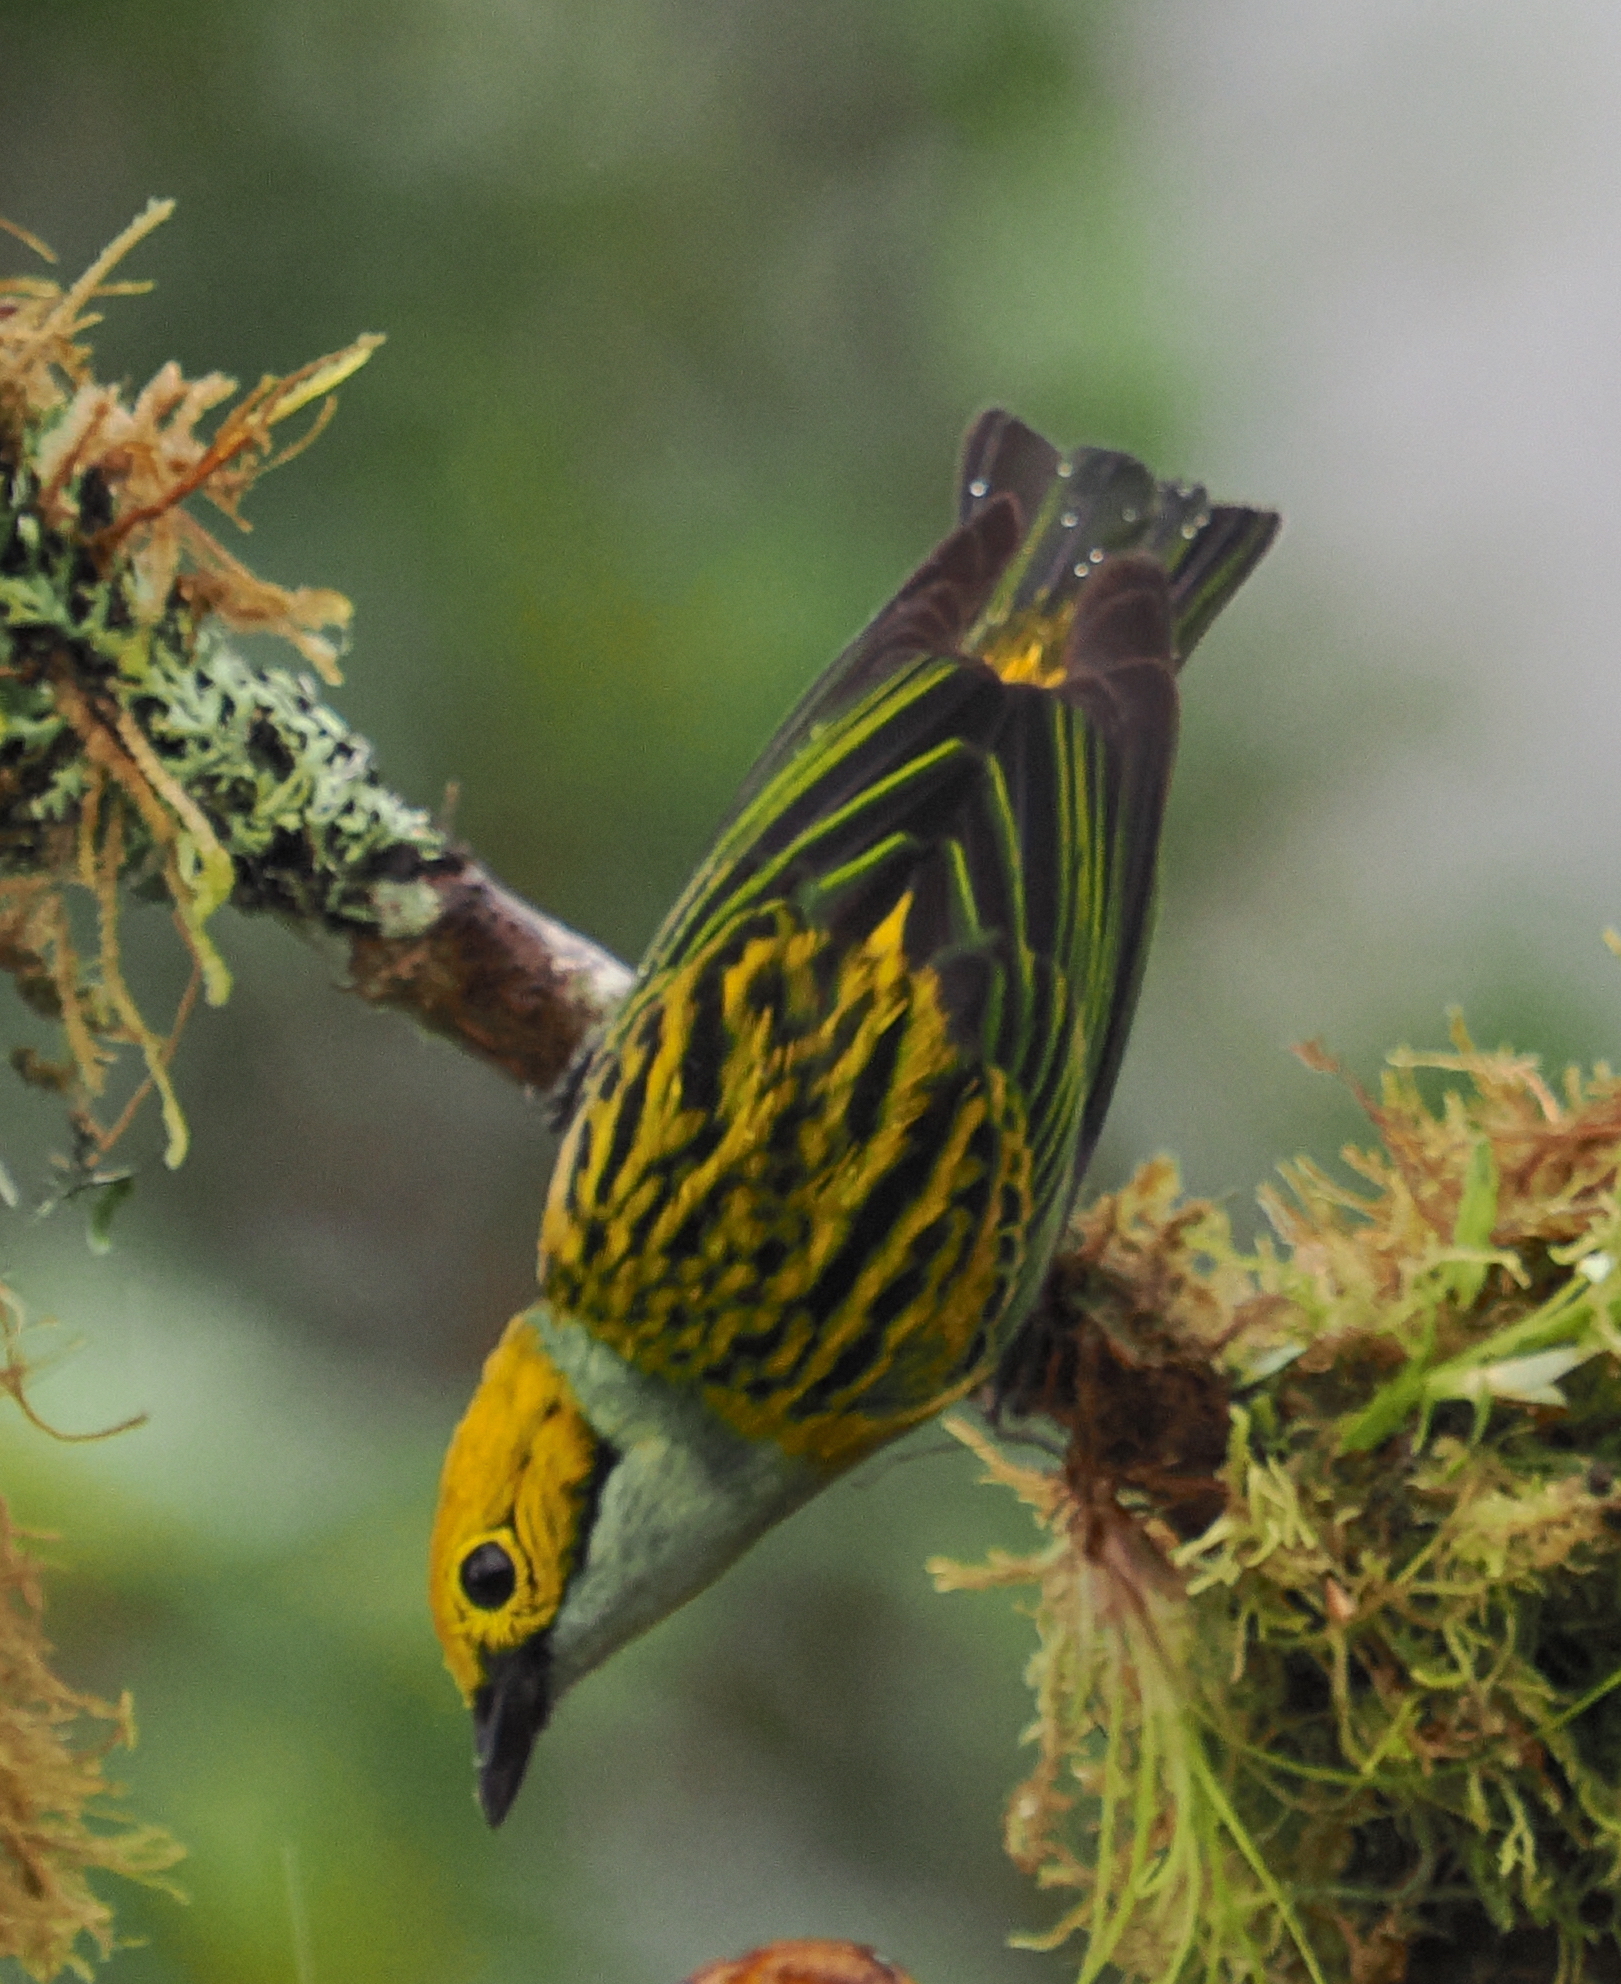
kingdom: Animalia
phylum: Chordata
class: Aves
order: Passeriformes
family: Thraupidae
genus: Tangara
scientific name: Tangara icterocephala
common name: Silver-throated tanager
